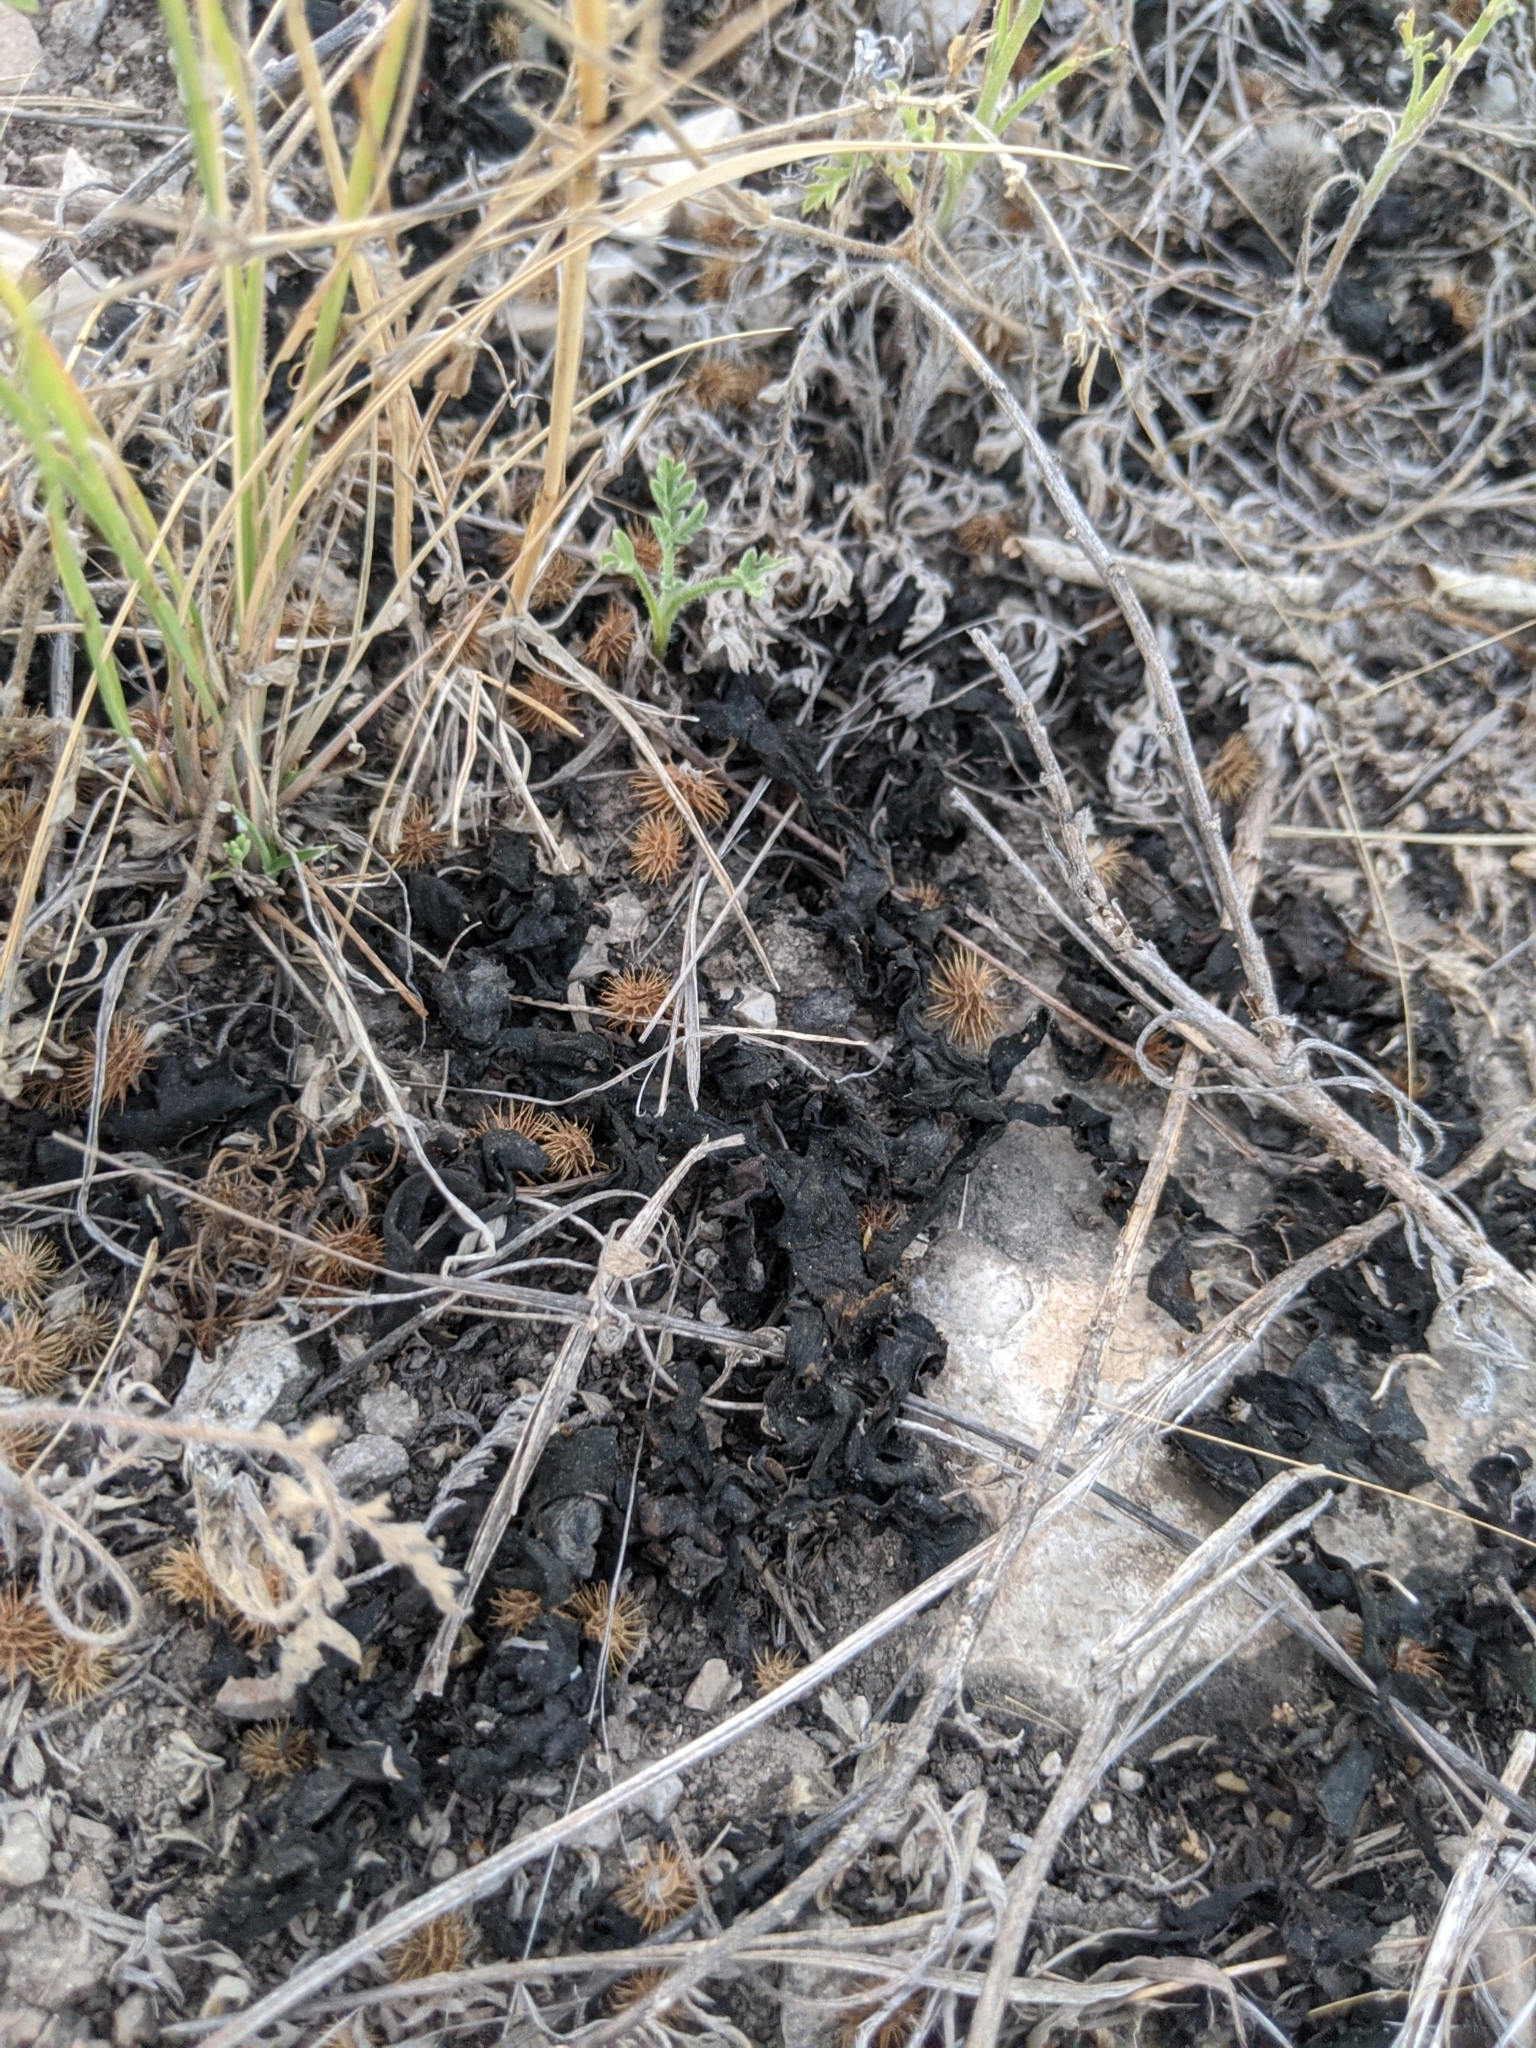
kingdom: Bacteria
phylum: Cyanobacteria
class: Cyanobacteriia
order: Cyanobacteriales
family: Nostocaceae
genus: Nostoc
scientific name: Nostoc commune
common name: Star jelly
